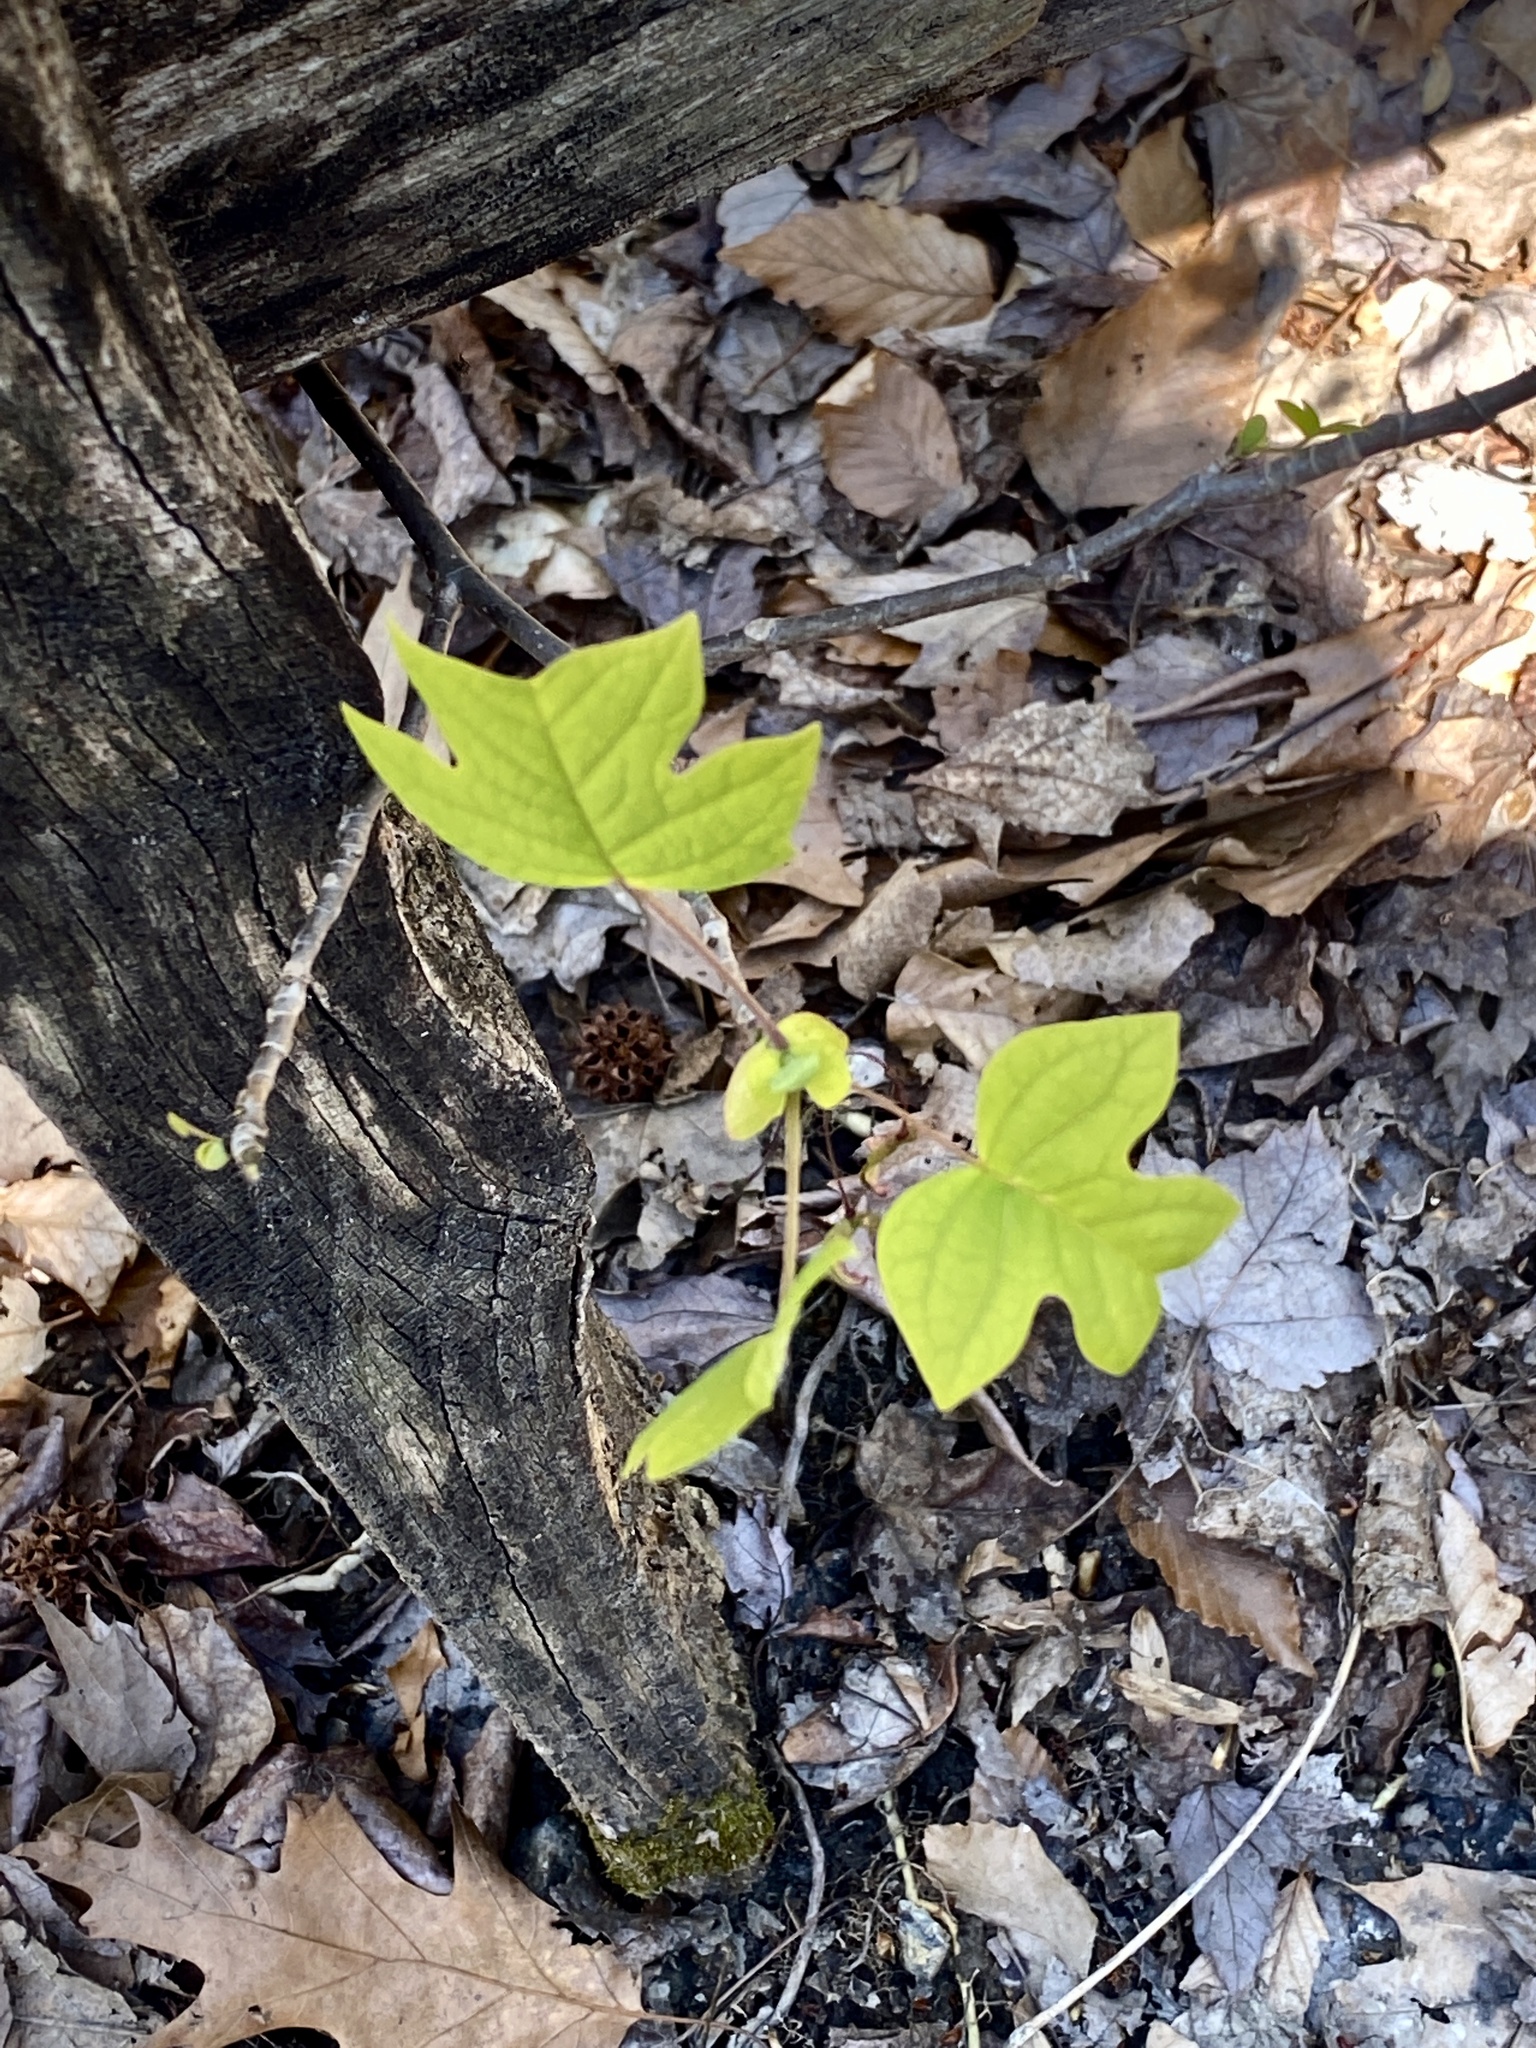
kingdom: Plantae
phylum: Tracheophyta
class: Magnoliopsida
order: Magnoliales
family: Magnoliaceae
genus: Liriodendron
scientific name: Liriodendron tulipifera
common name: Tulip tree
